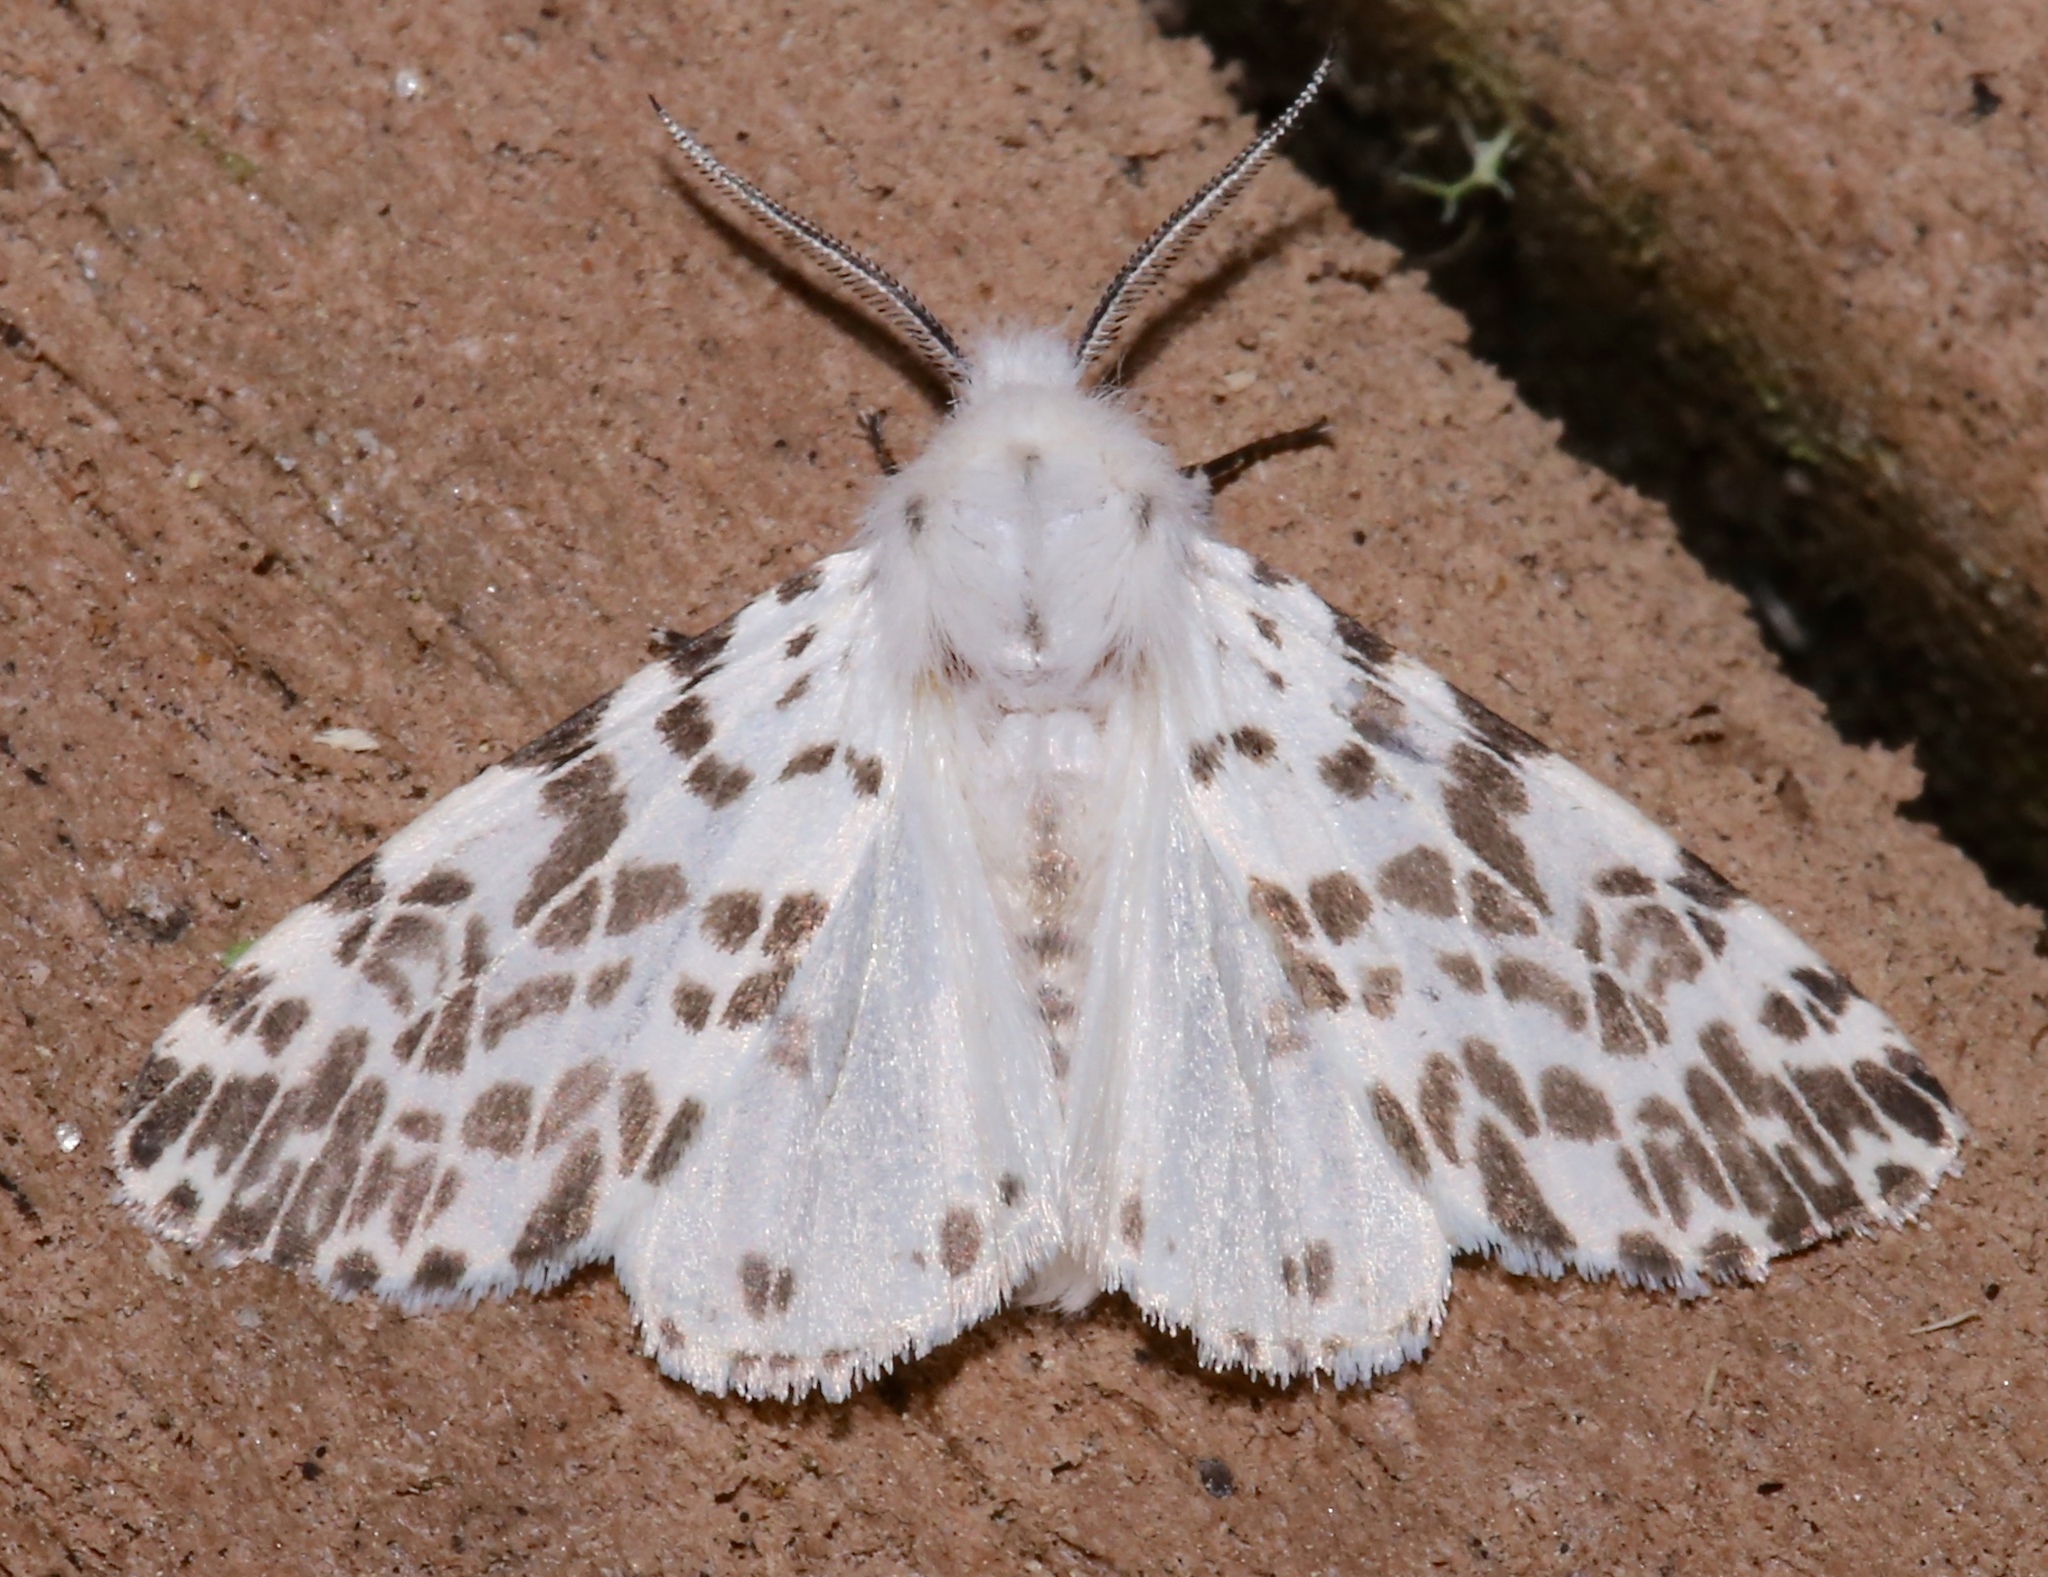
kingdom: Animalia
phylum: Arthropoda
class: Insecta
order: Lepidoptera
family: Erebidae
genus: Hyphantria
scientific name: Hyphantria cunea
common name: American white moth
